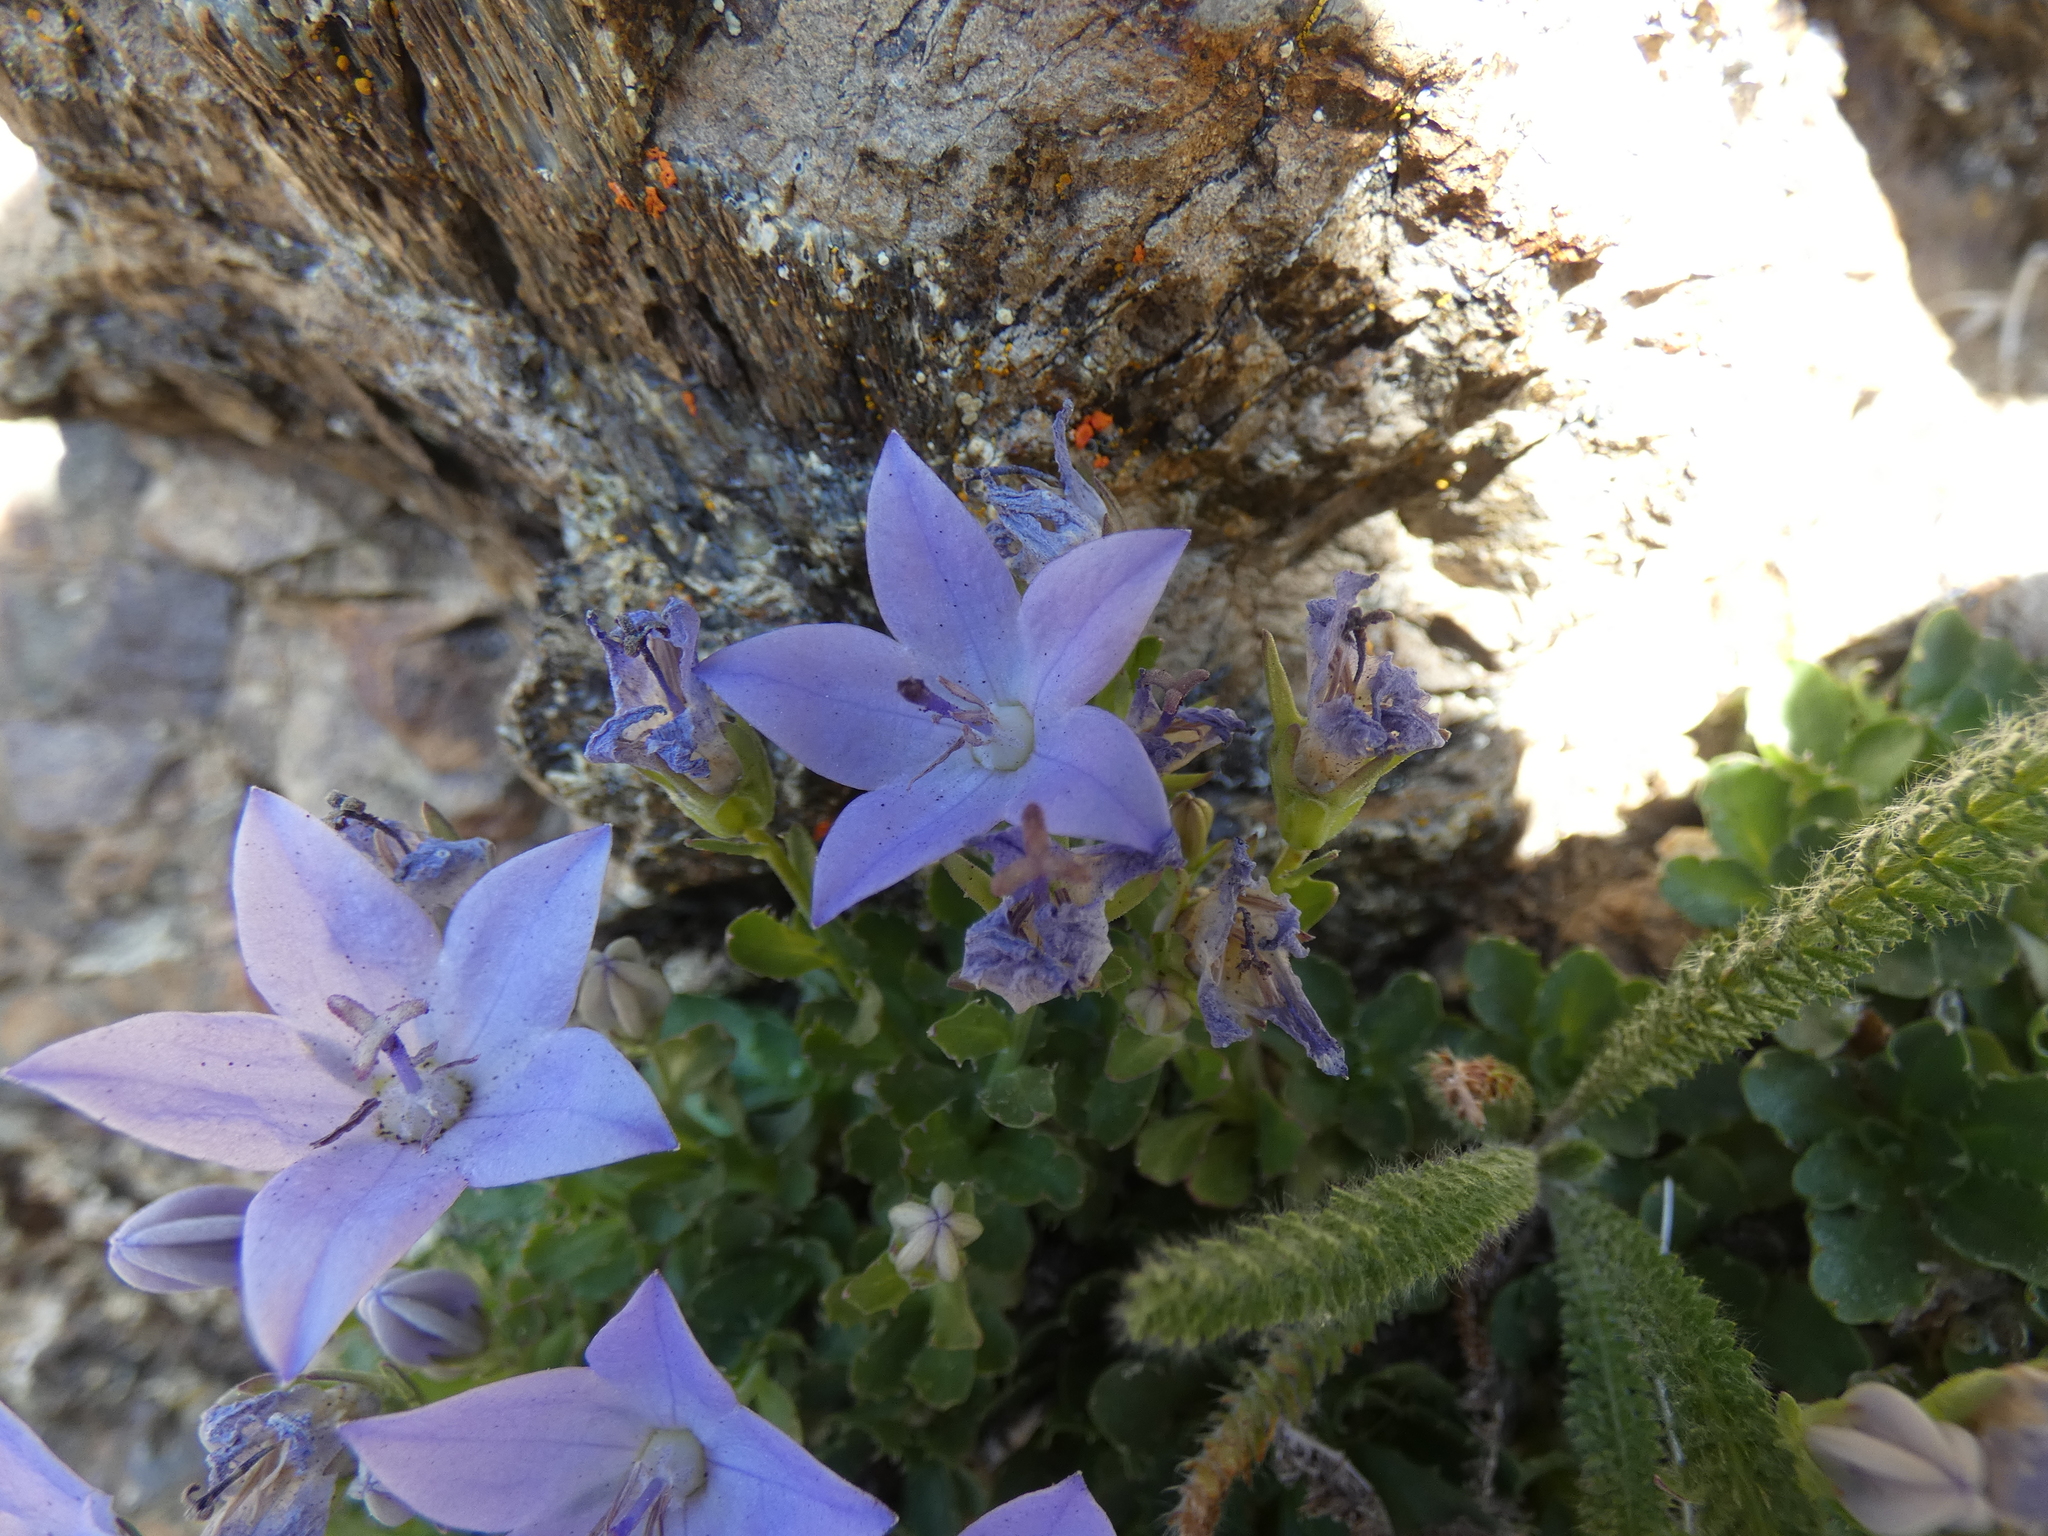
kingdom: Plantae
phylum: Tracheophyta
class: Magnoliopsida
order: Asterales
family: Campanulaceae
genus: Campanula
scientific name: Campanula piperi
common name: Olympic bellflower
